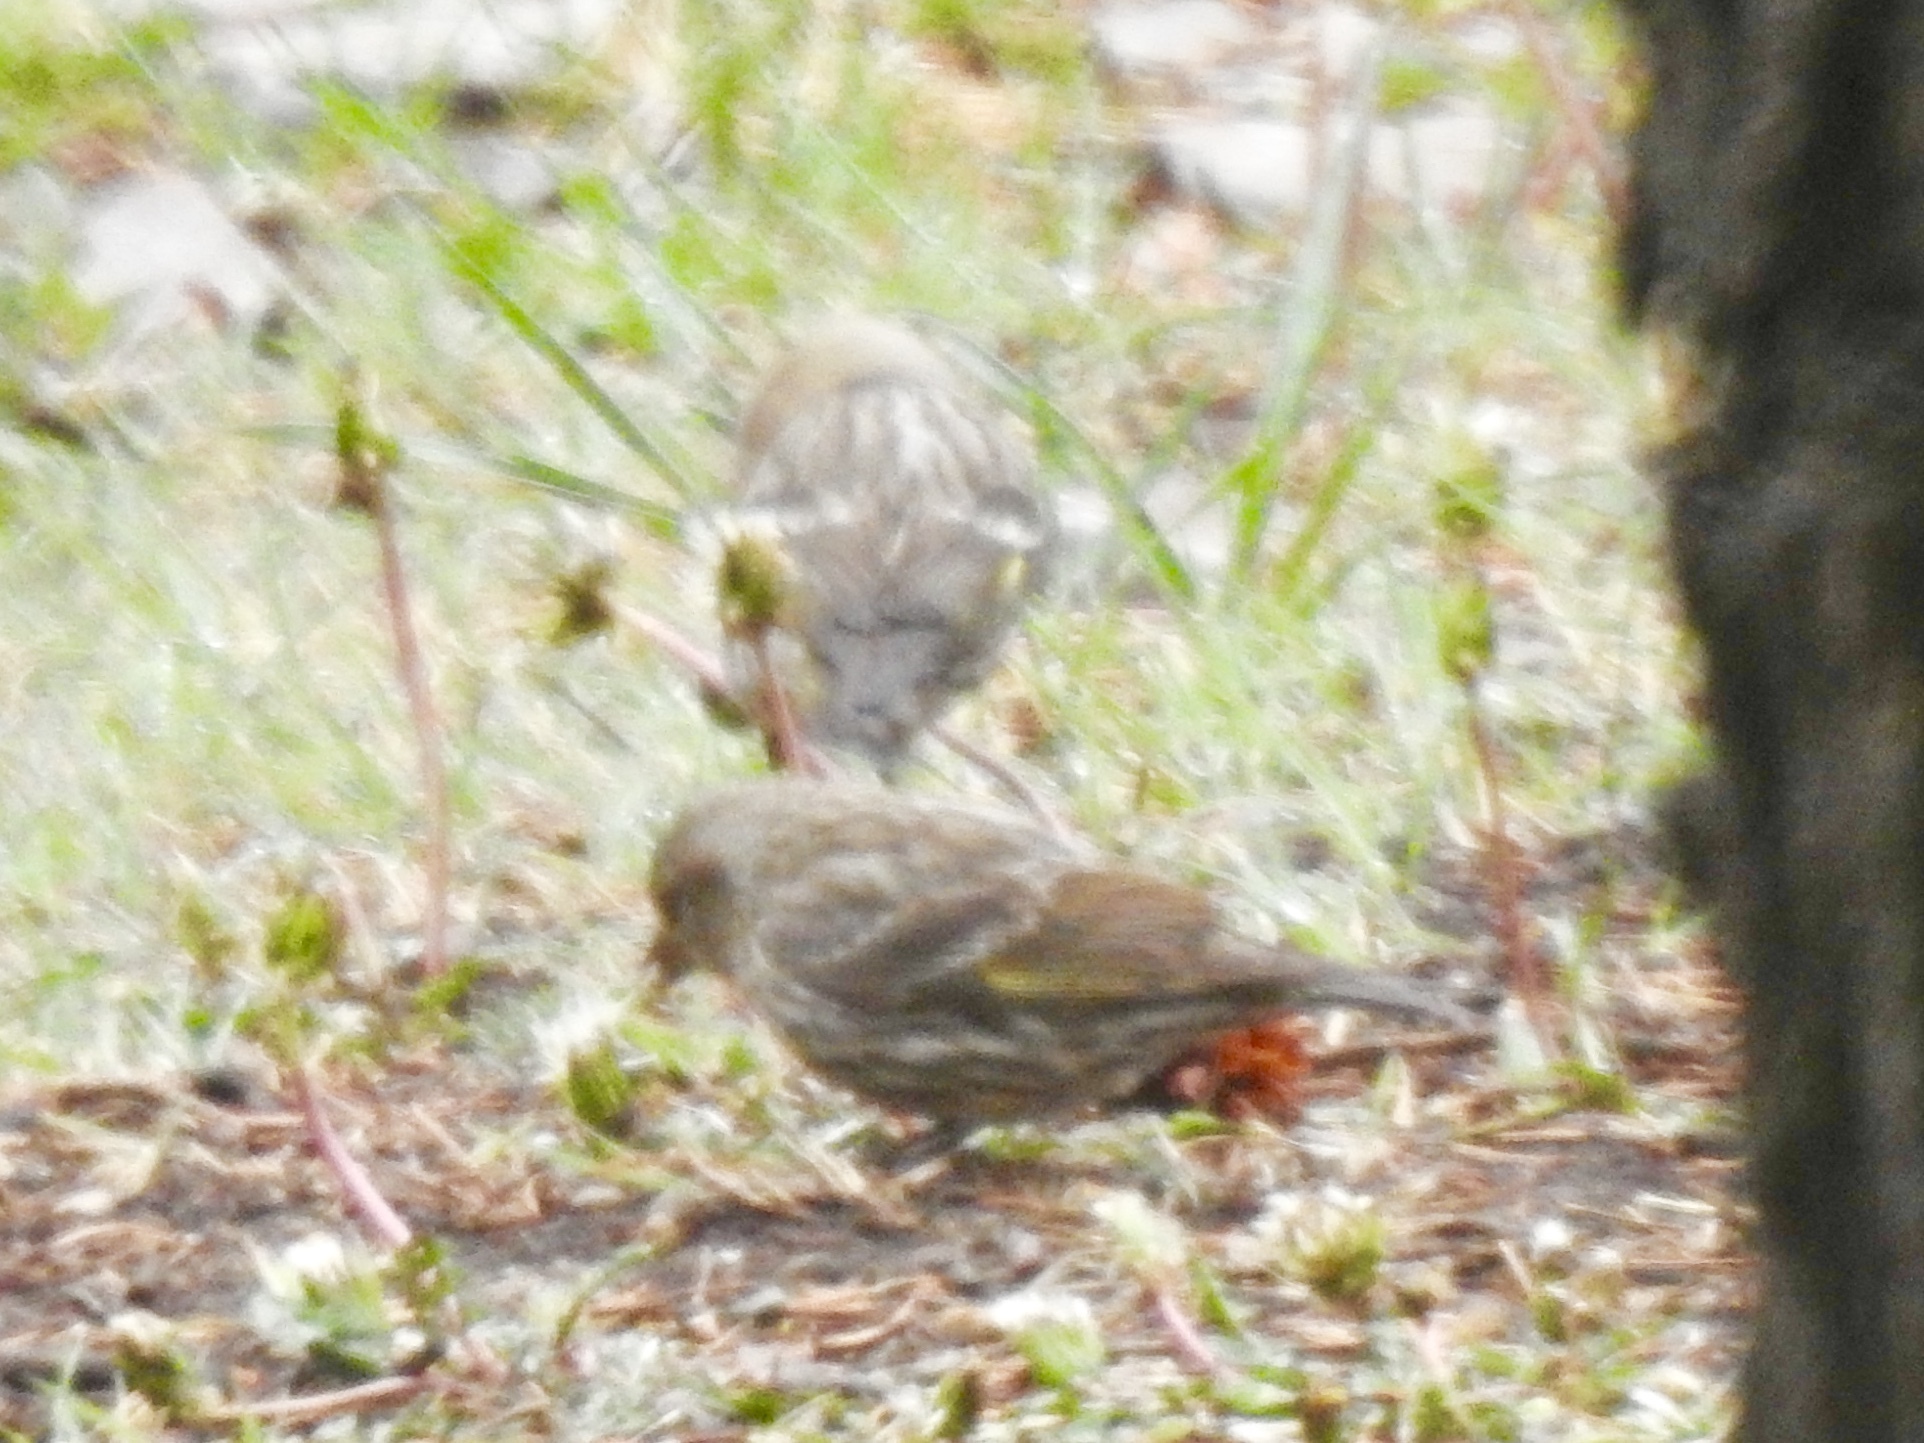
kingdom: Animalia
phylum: Chordata
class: Aves
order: Passeriformes
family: Fringillidae
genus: Spinus
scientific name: Spinus pinus
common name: Pine siskin
